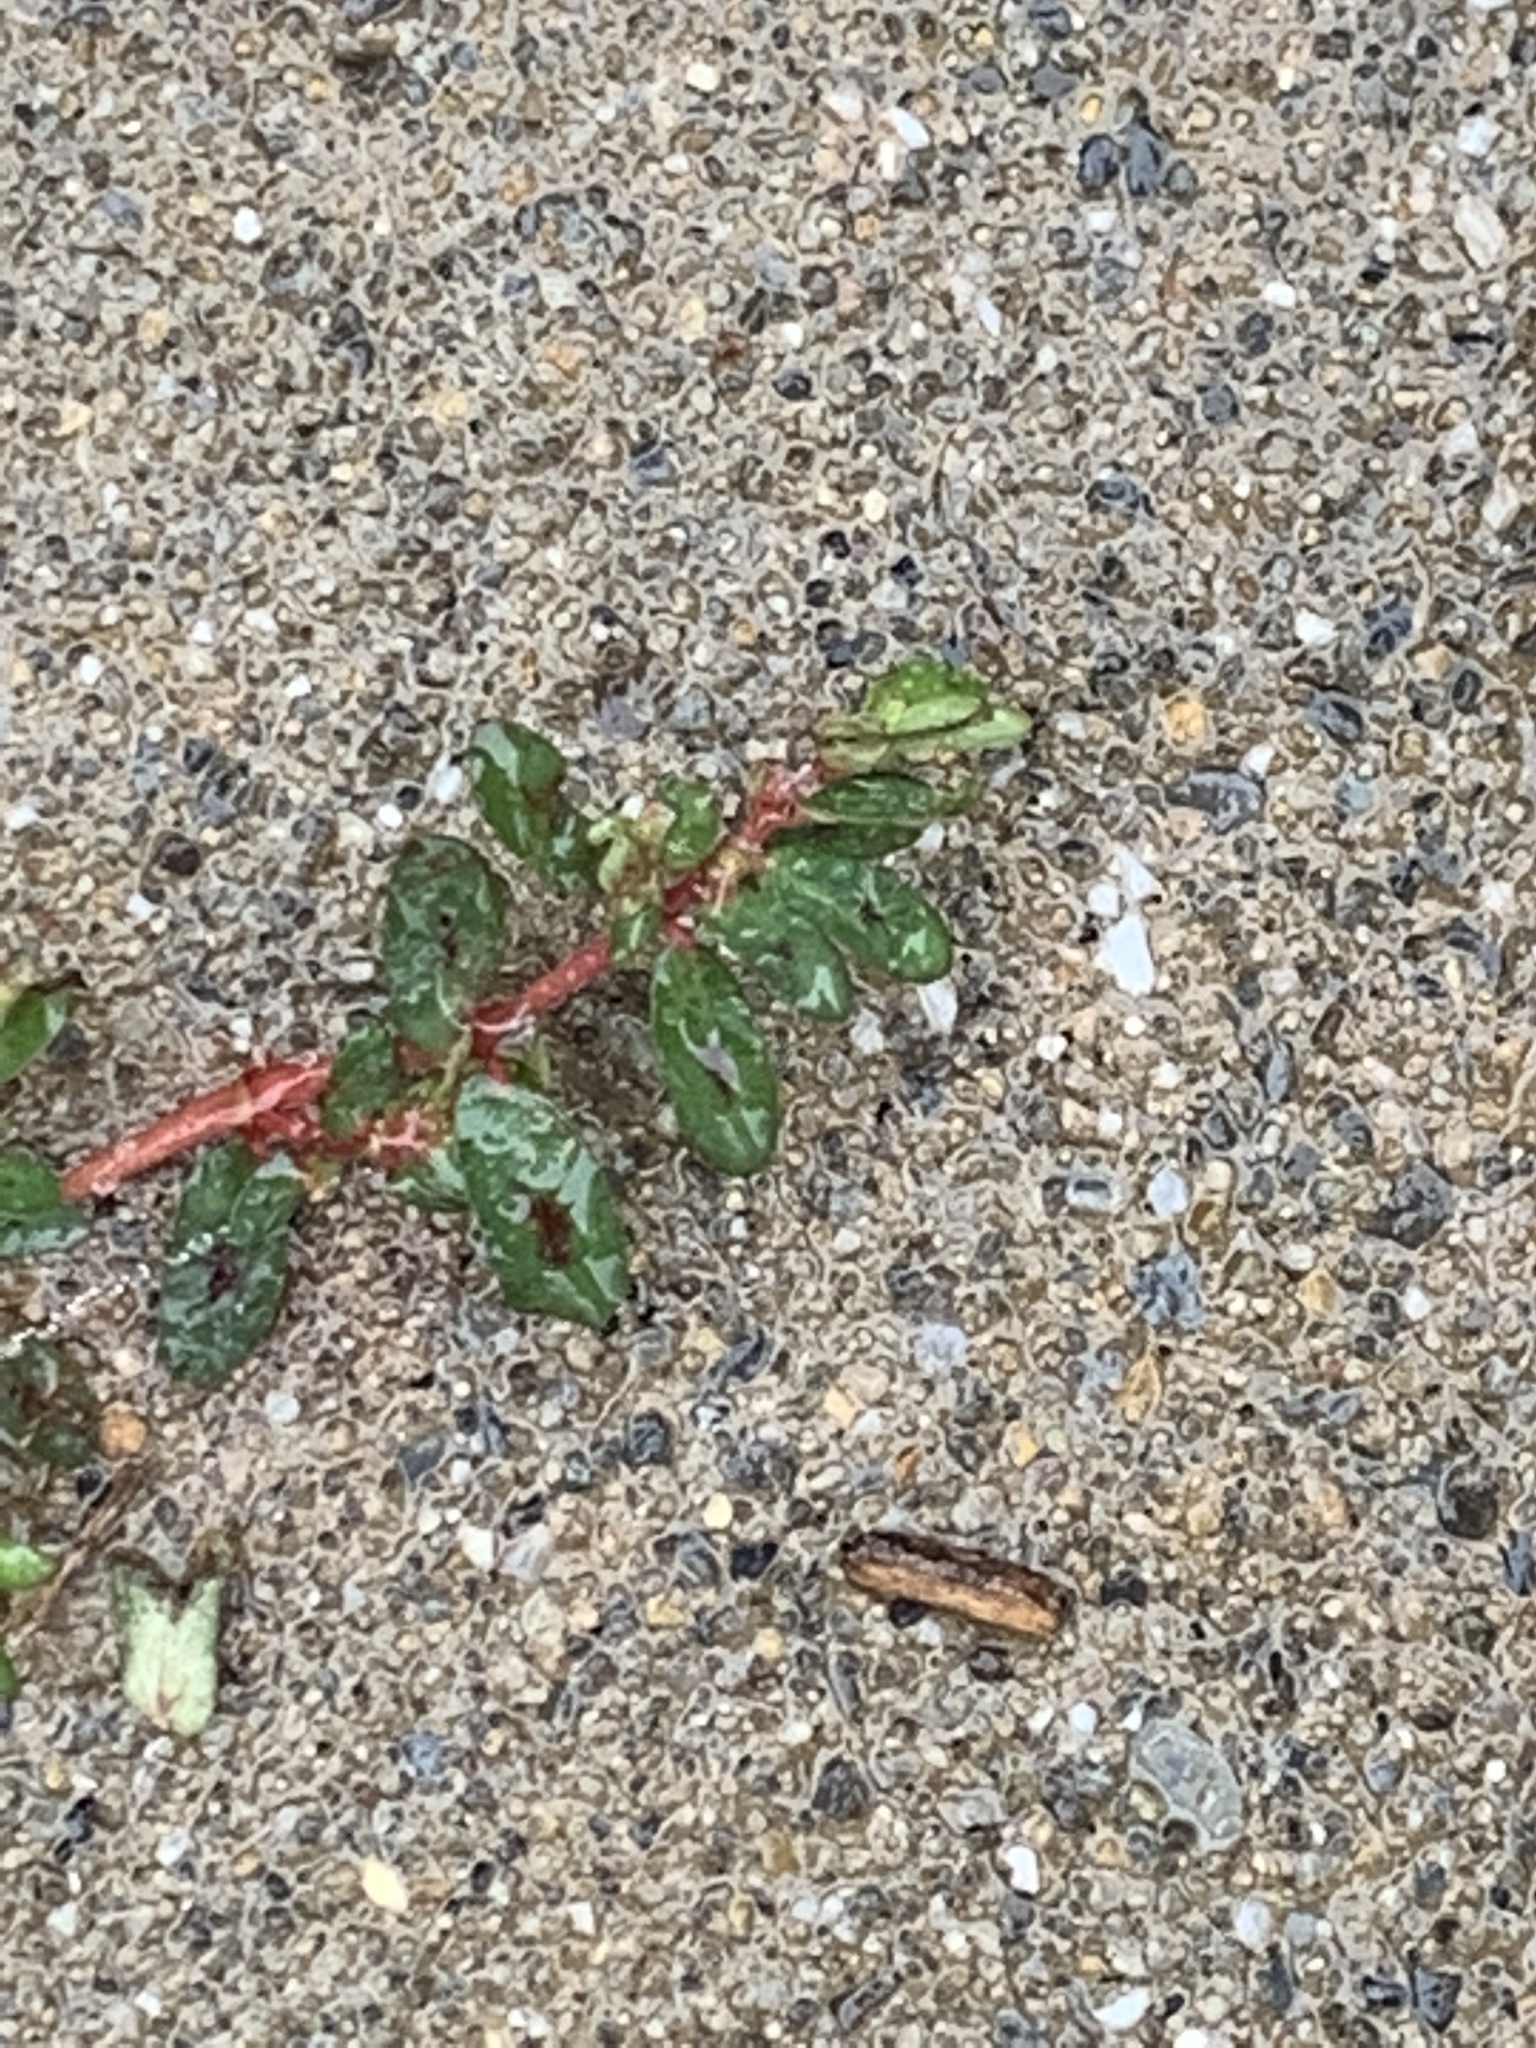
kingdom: Plantae
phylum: Tracheophyta
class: Magnoliopsida
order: Malpighiales
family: Euphorbiaceae
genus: Euphorbia
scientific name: Euphorbia maculata
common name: Spotted spurge
